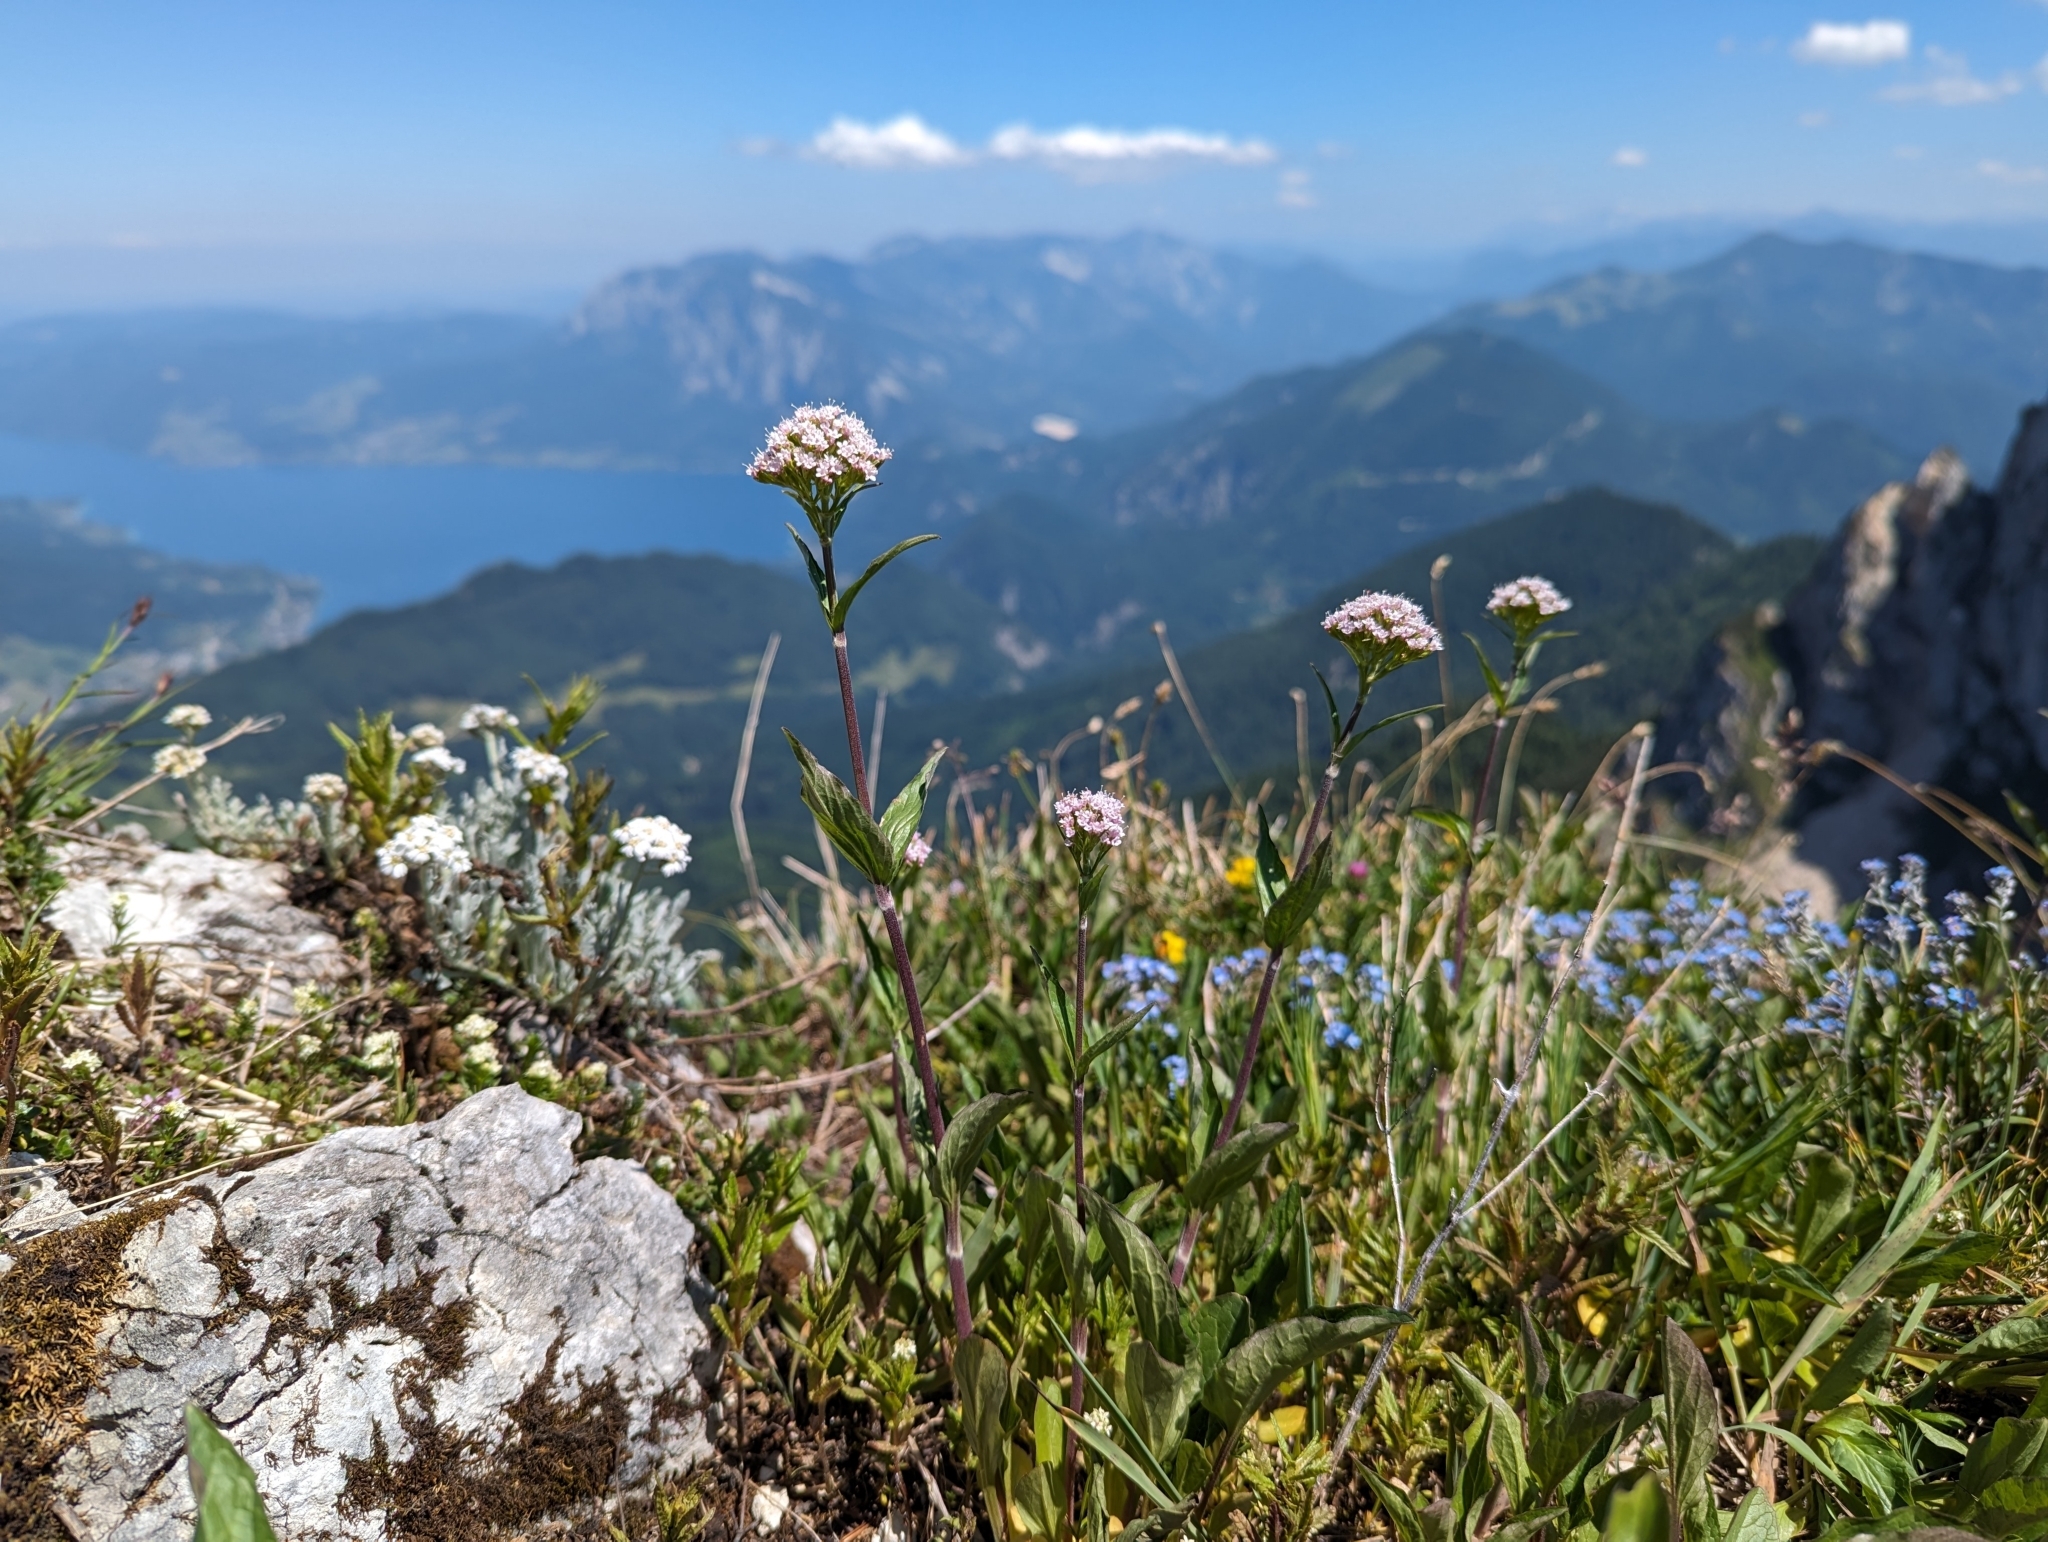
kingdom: Plantae
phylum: Tracheophyta
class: Magnoliopsida
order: Dipsacales
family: Caprifoliaceae
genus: Valeriana
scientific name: Valeriana montana
